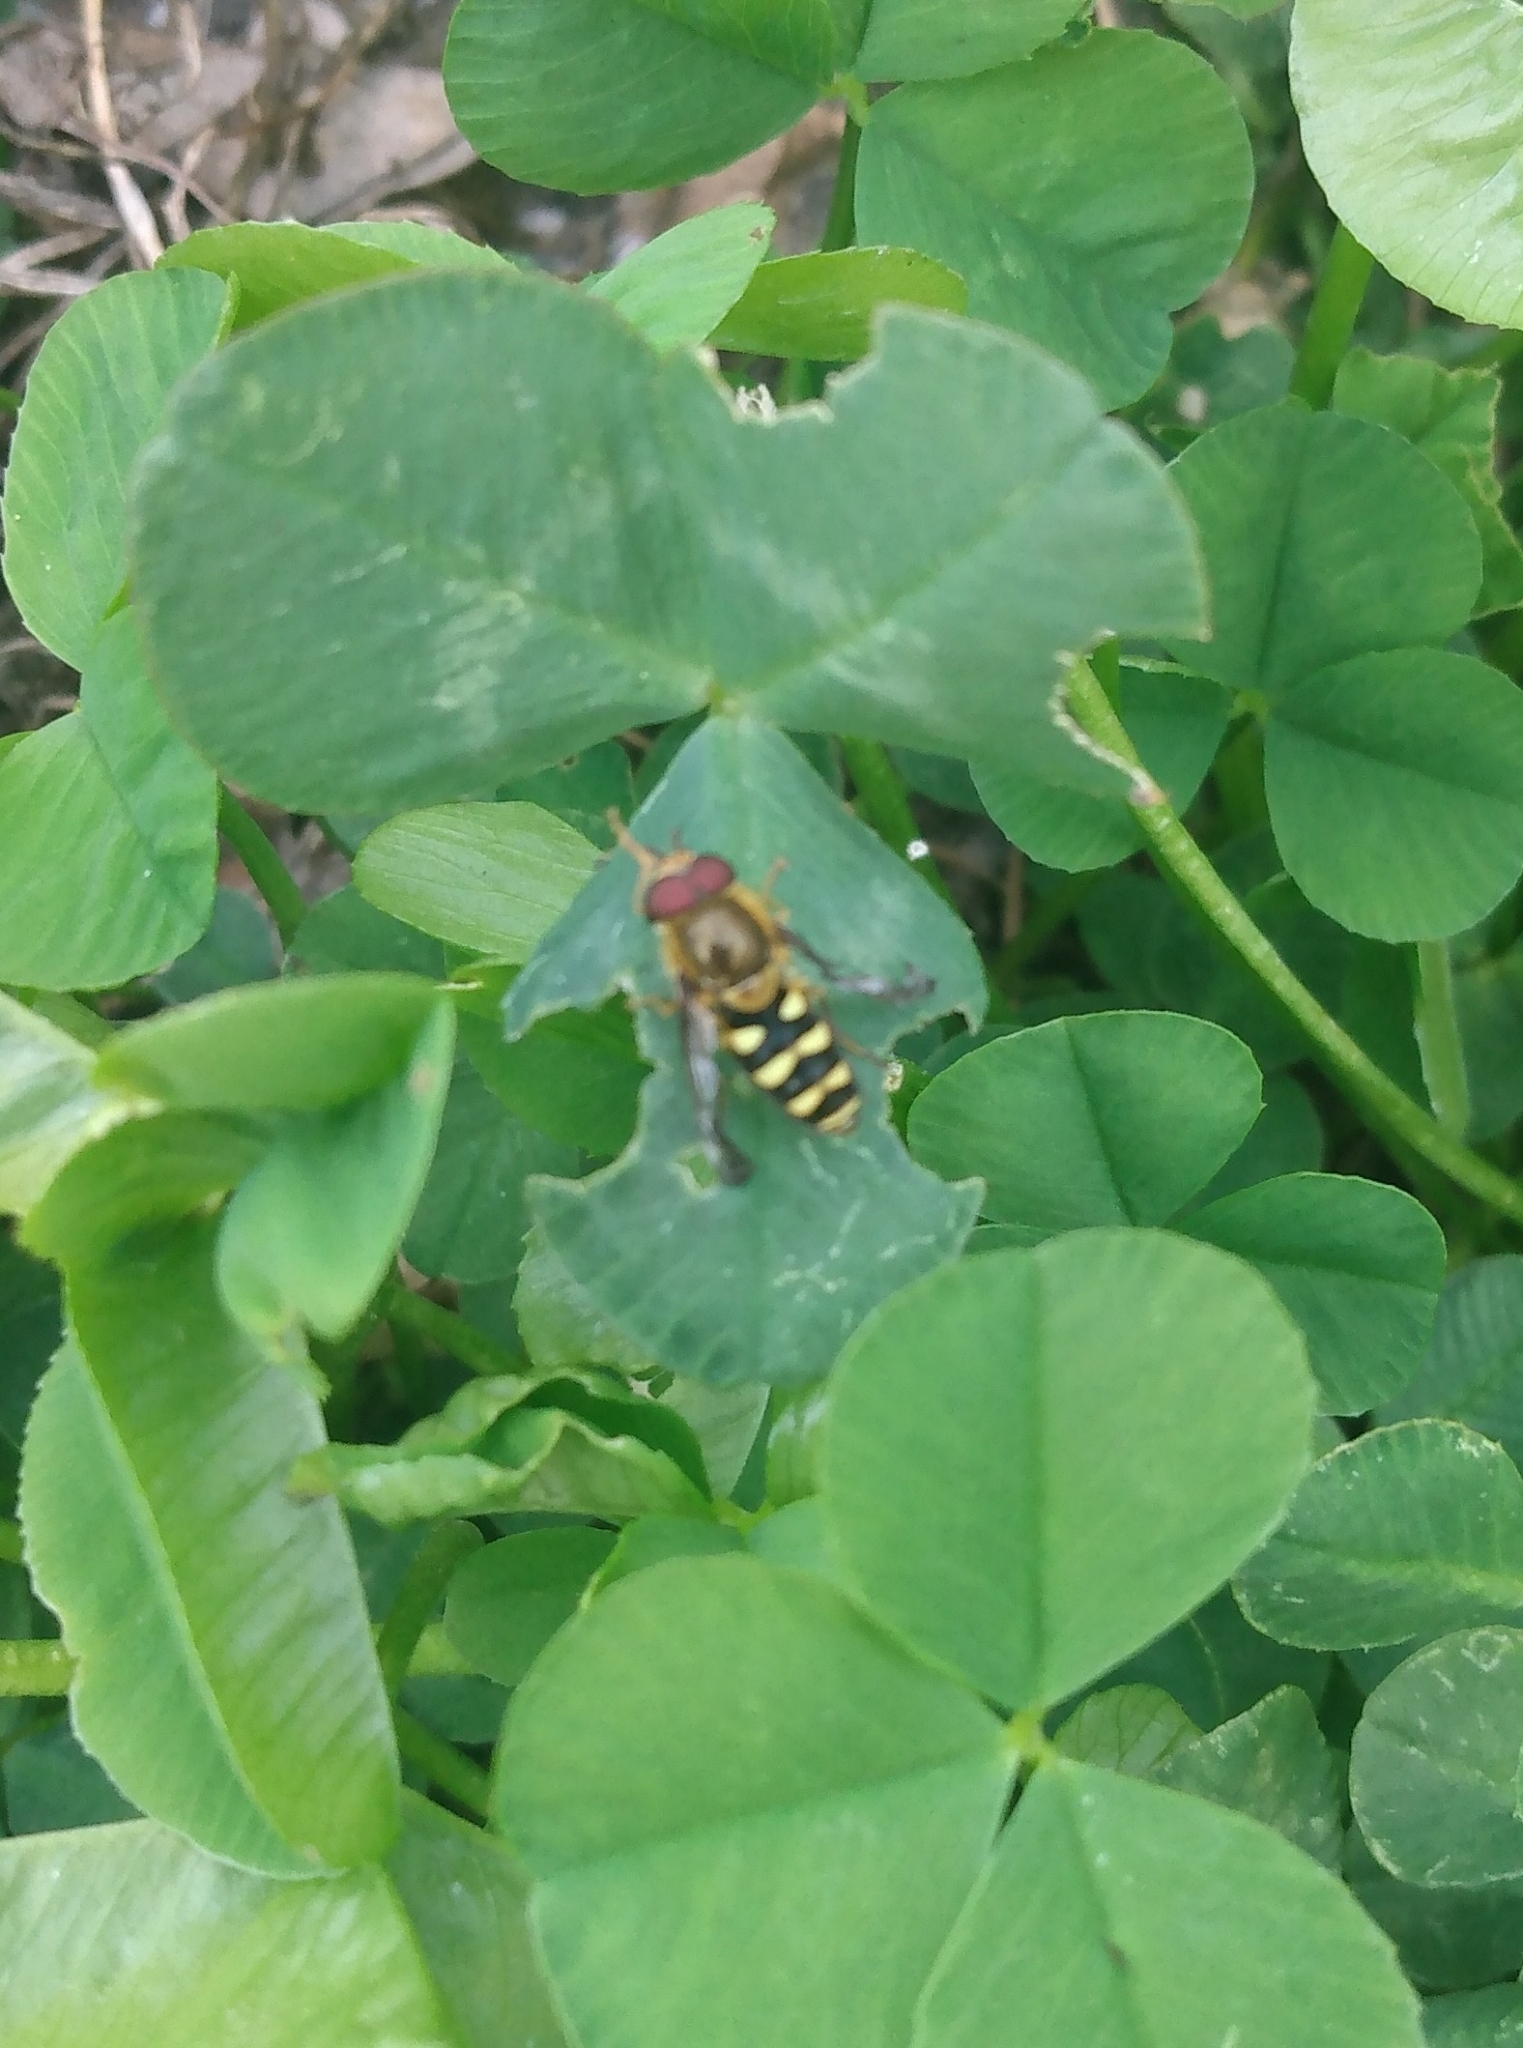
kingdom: Animalia
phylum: Arthropoda
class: Insecta
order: Diptera
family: Syrphidae
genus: Syrphus
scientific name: Syrphus opinator
